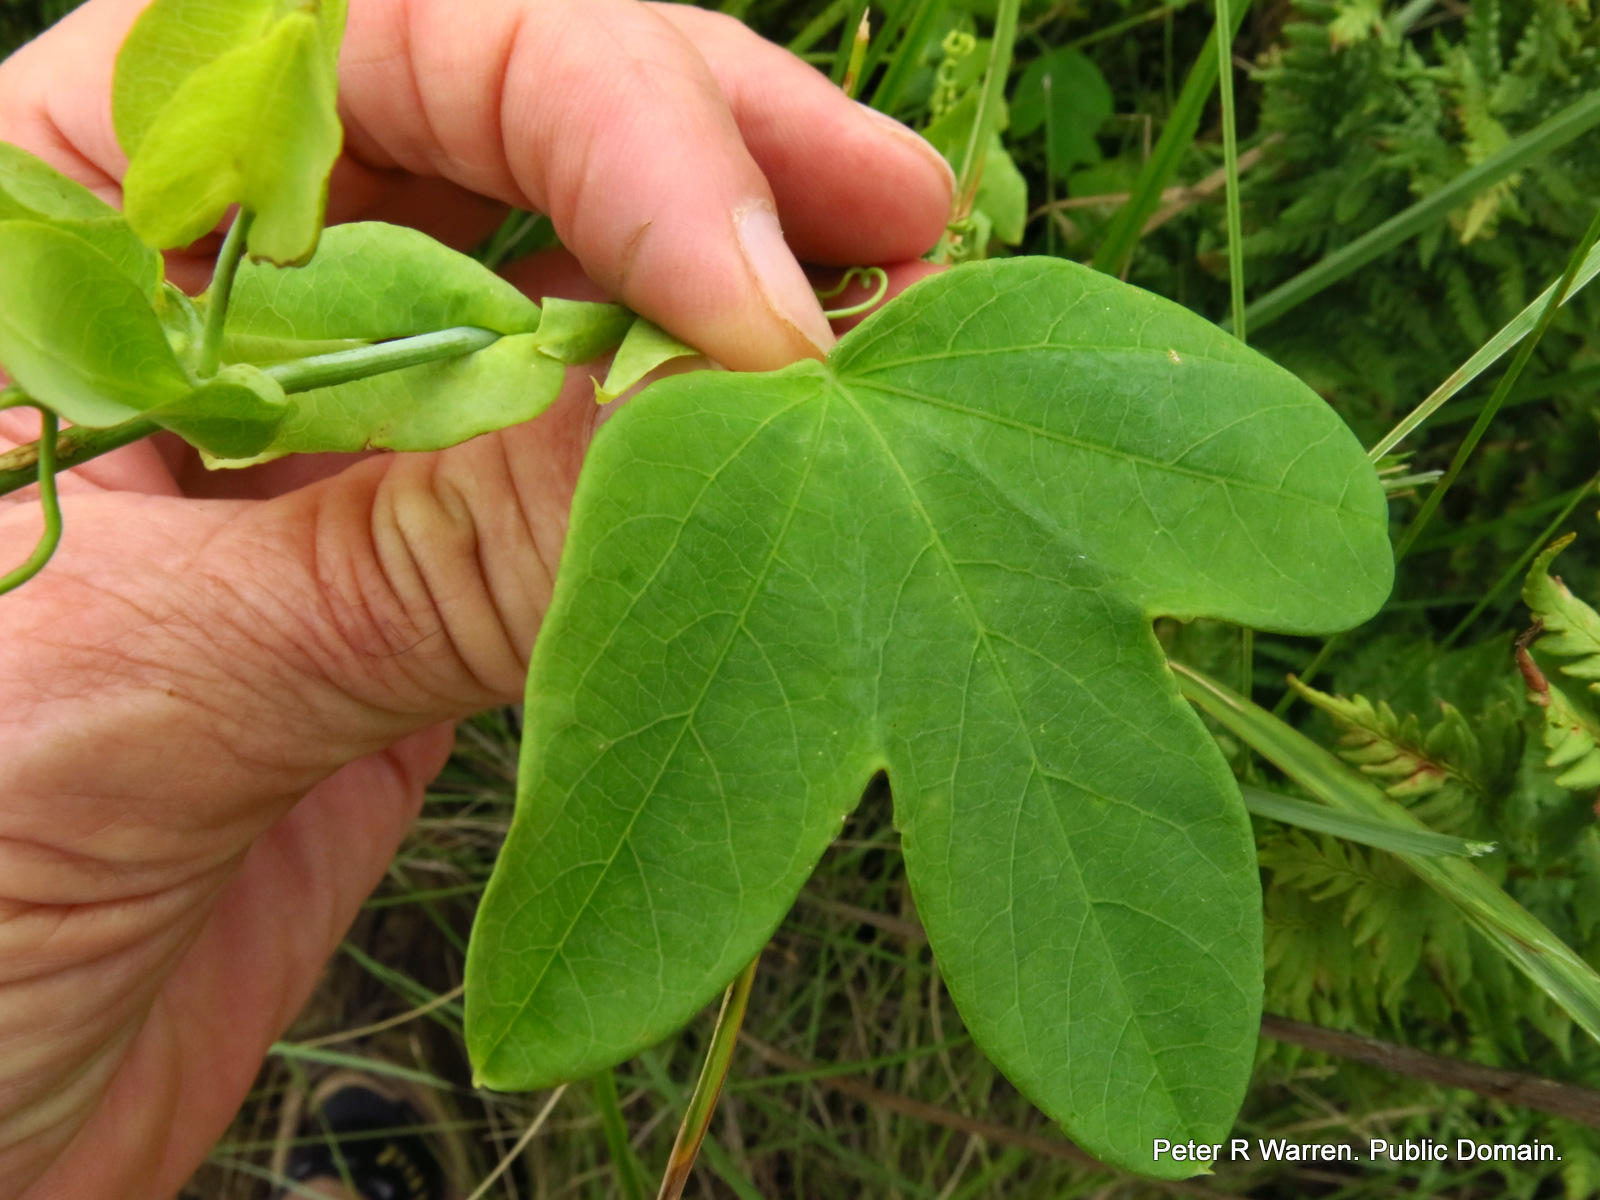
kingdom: Plantae
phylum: Tracheophyta
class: Magnoliopsida
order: Malpighiales
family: Passifloraceae
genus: Passiflora
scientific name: Passiflora subpeltata
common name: White passionflower
